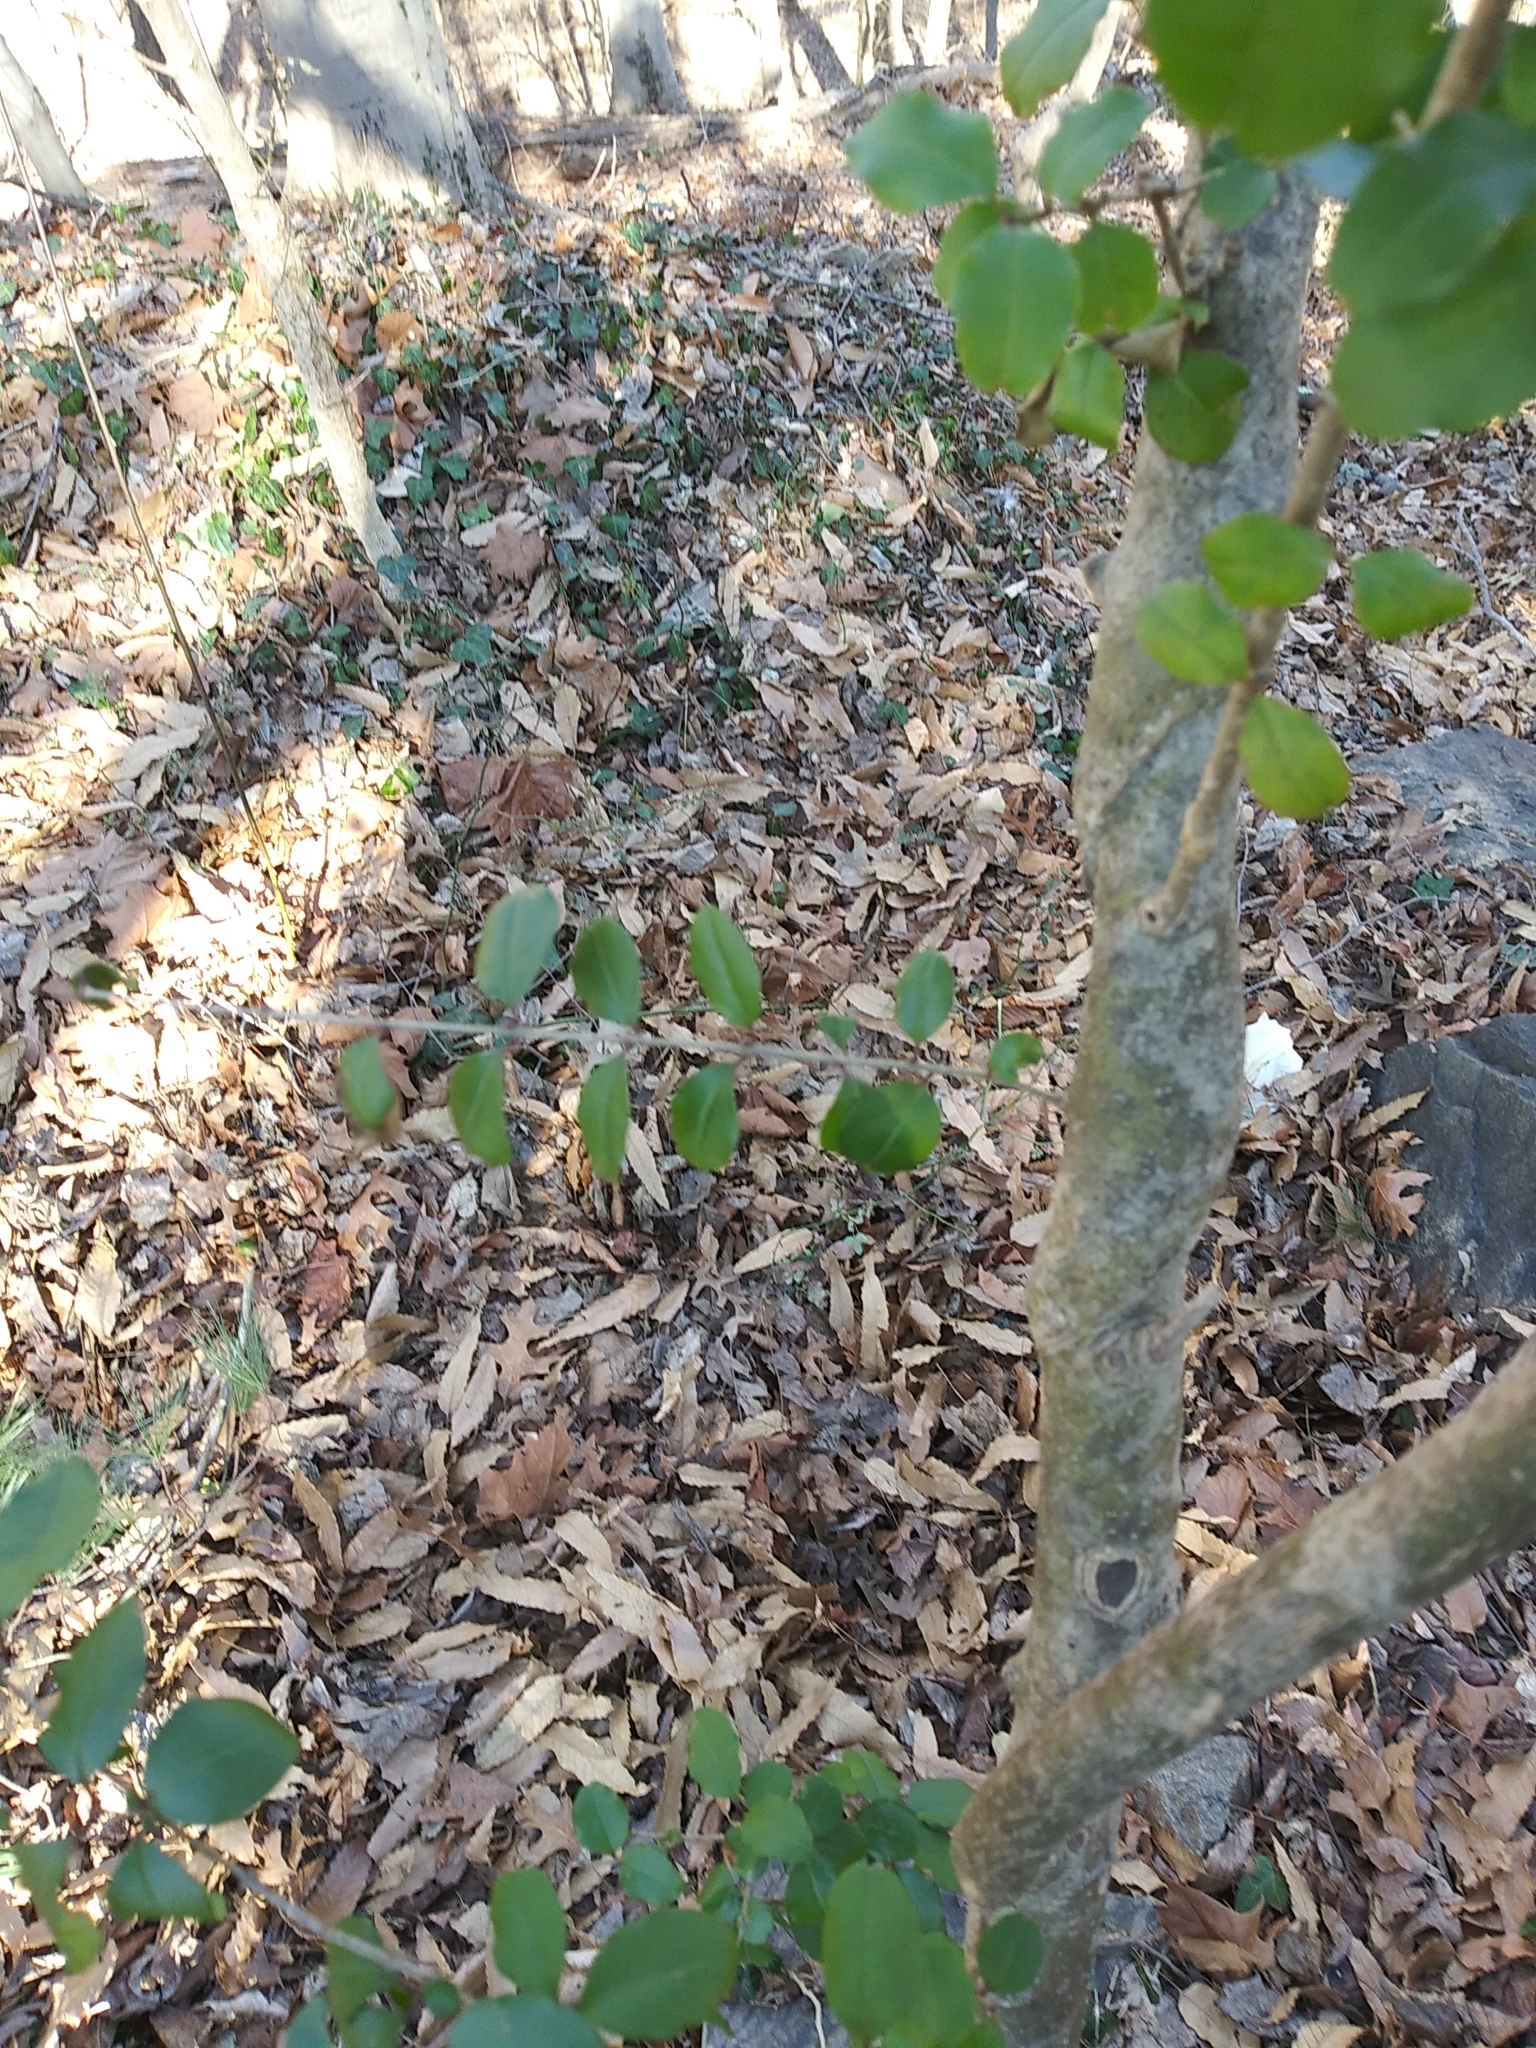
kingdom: Plantae
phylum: Tracheophyta
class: Magnoliopsida
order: Lamiales
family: Oleaceae
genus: Ligustrum
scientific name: Ligustrum sinense
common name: Chinese privet
